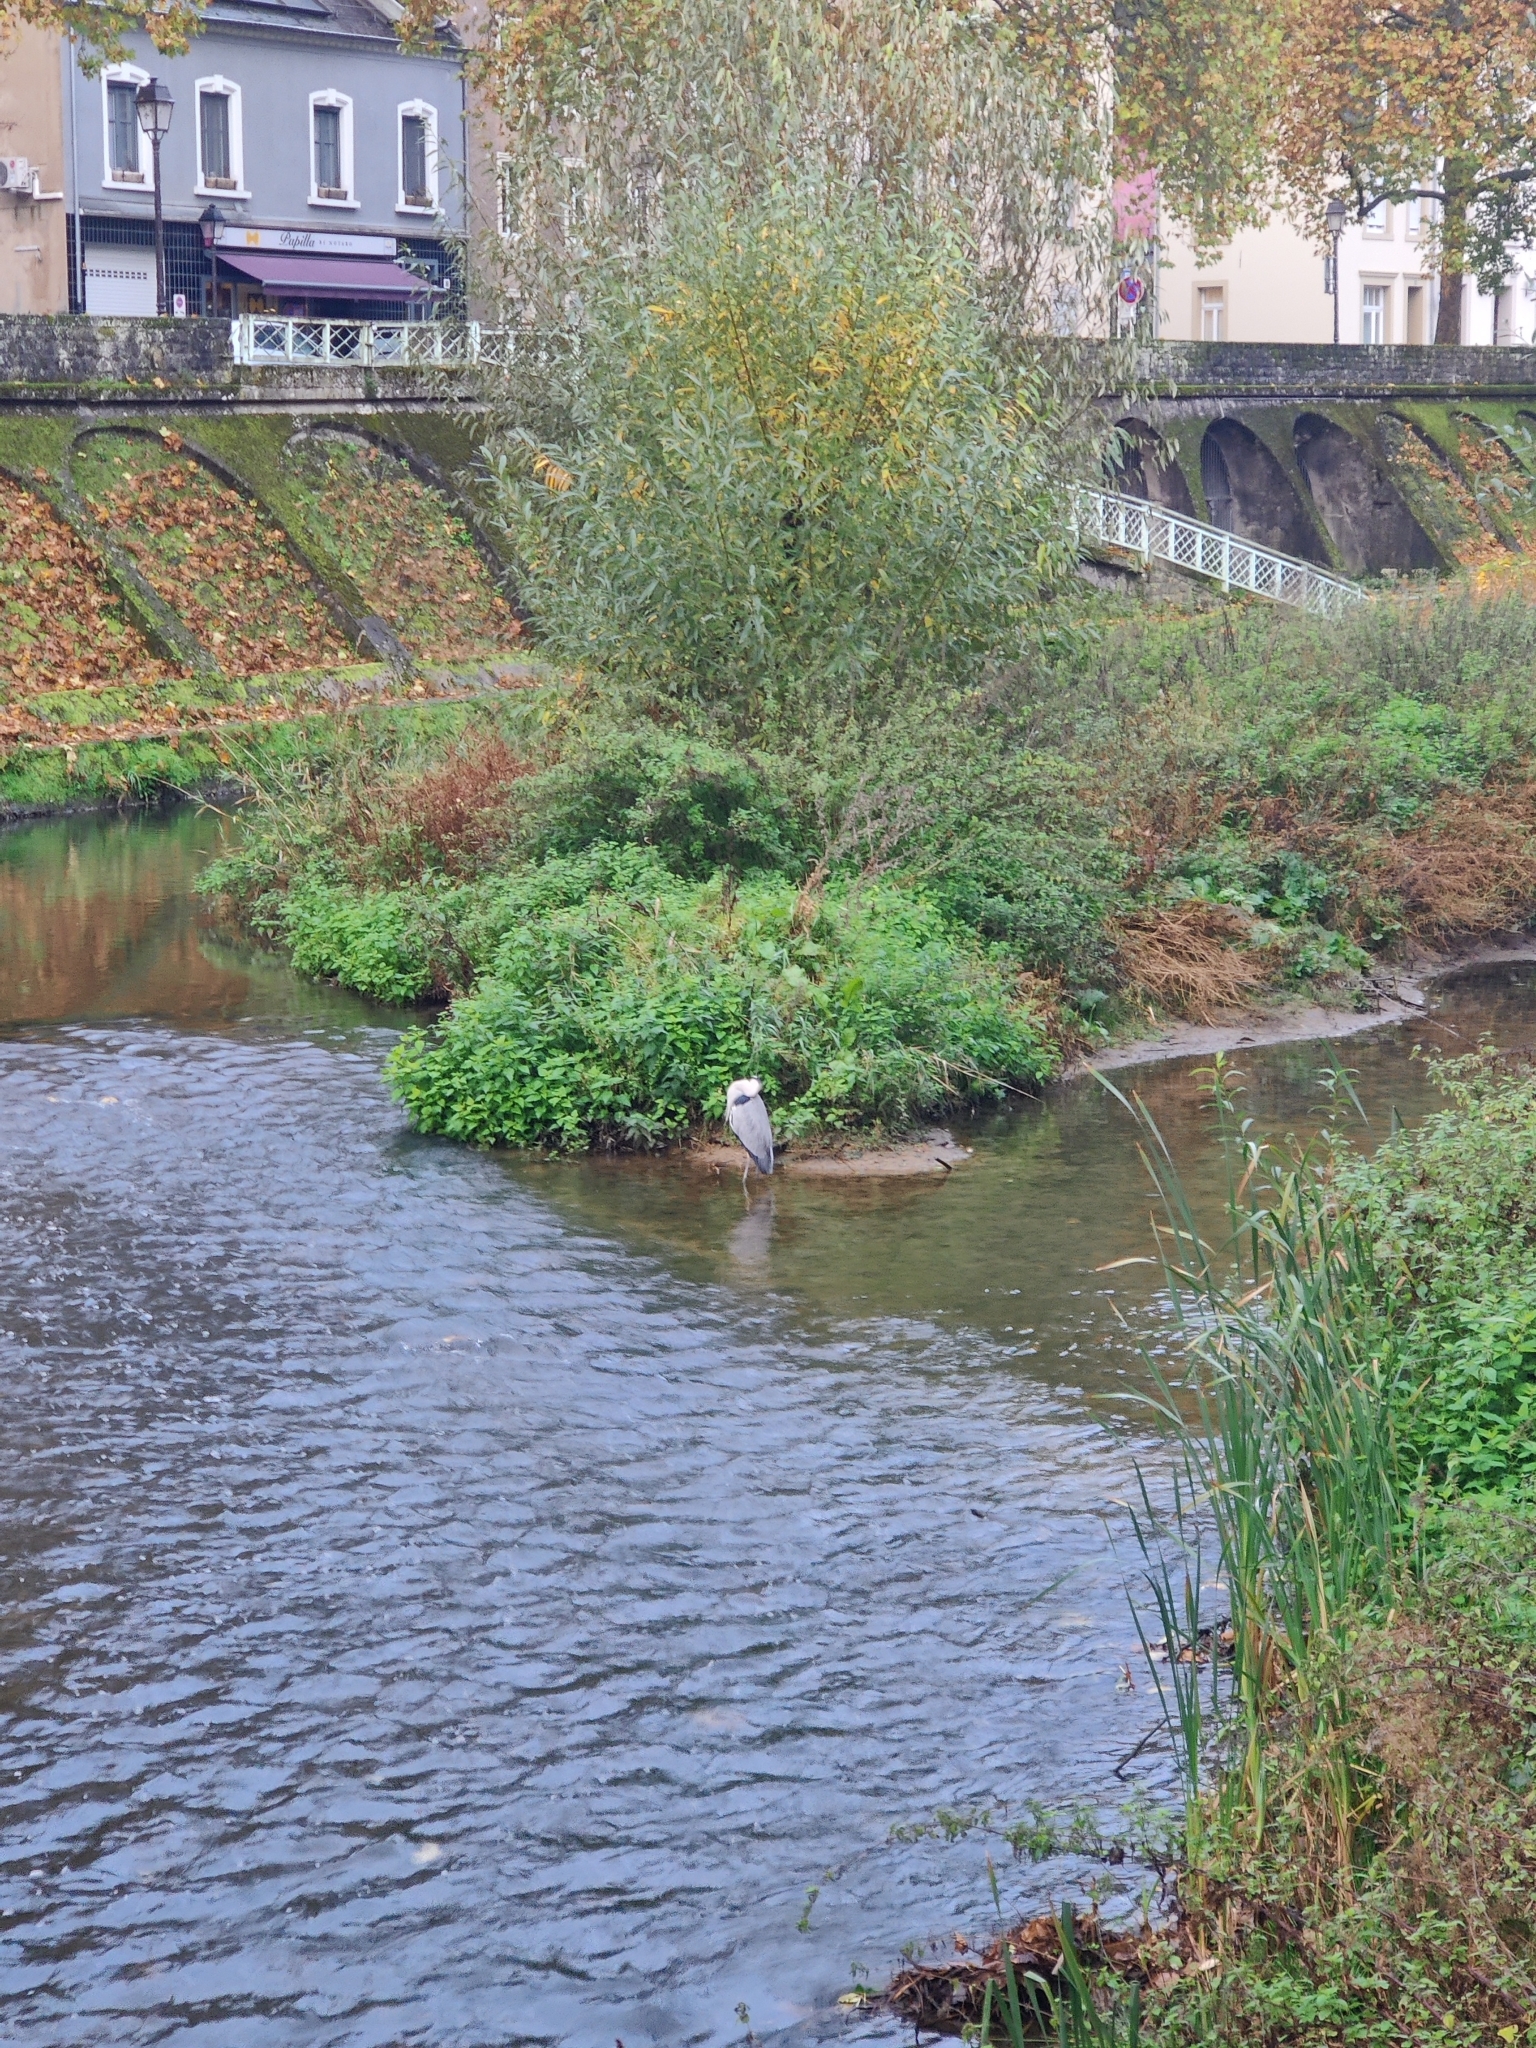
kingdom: Animalia
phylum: Chordata
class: Aves
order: Pelecaniformes
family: Ardeidae
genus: Ardea
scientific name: Ardea cinerea
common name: Grey heron
